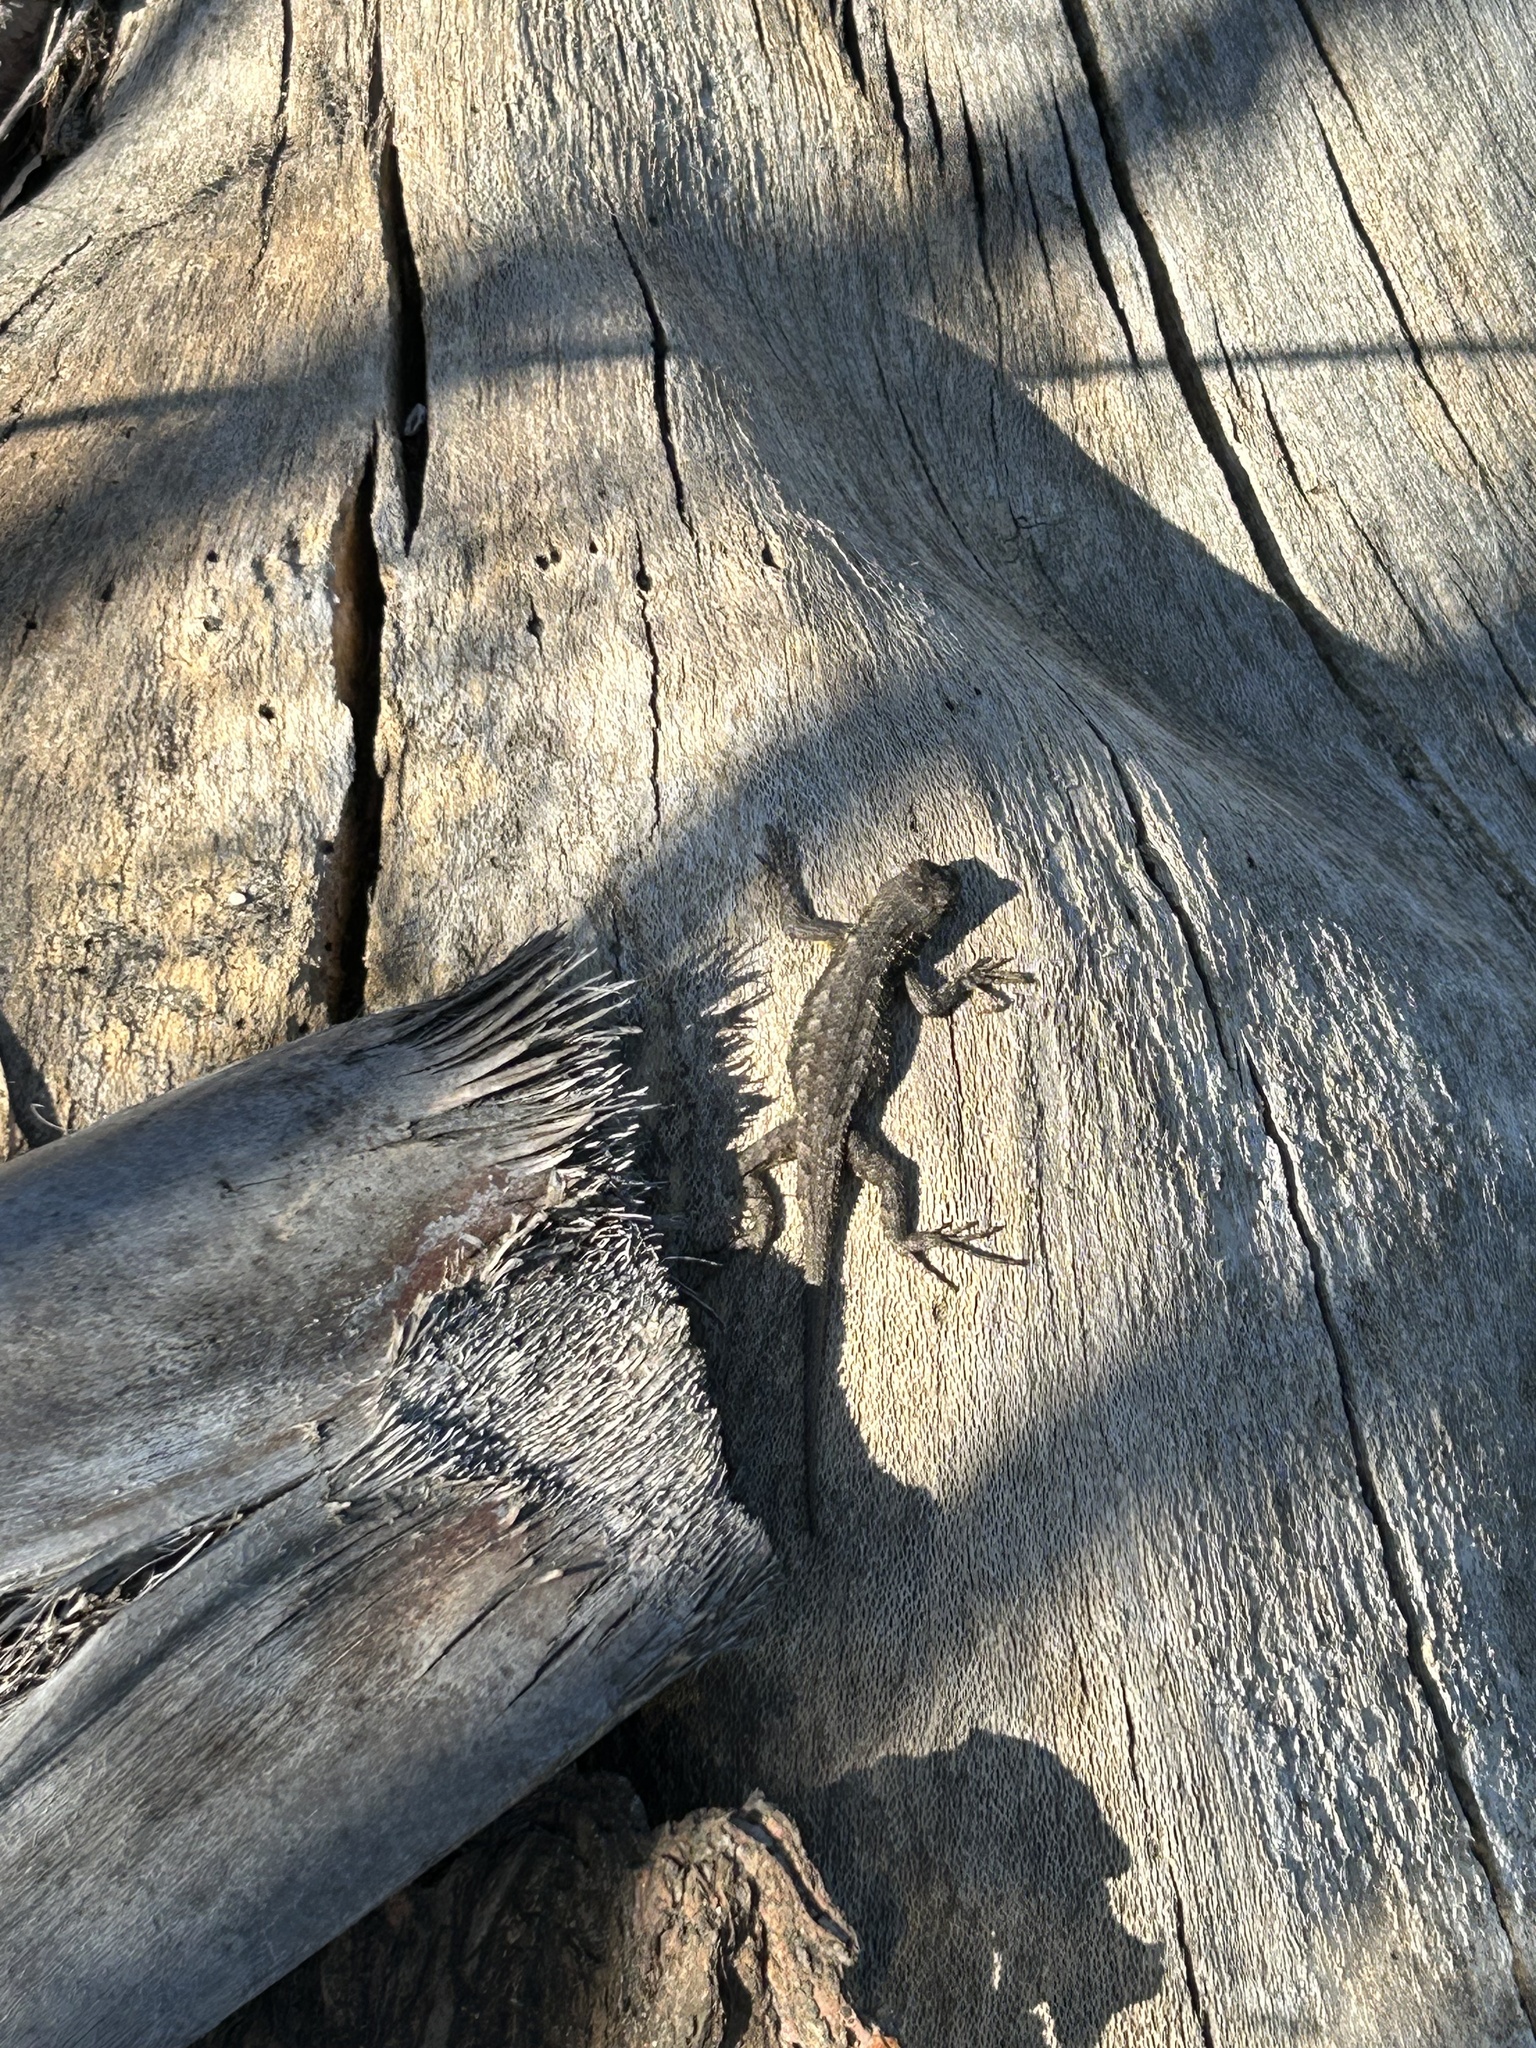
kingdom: Animalia
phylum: Chordata
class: Squamata
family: Phrynosomatidae
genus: Sceloporus
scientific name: Sceloporus occidentalis
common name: Western fence lizard
